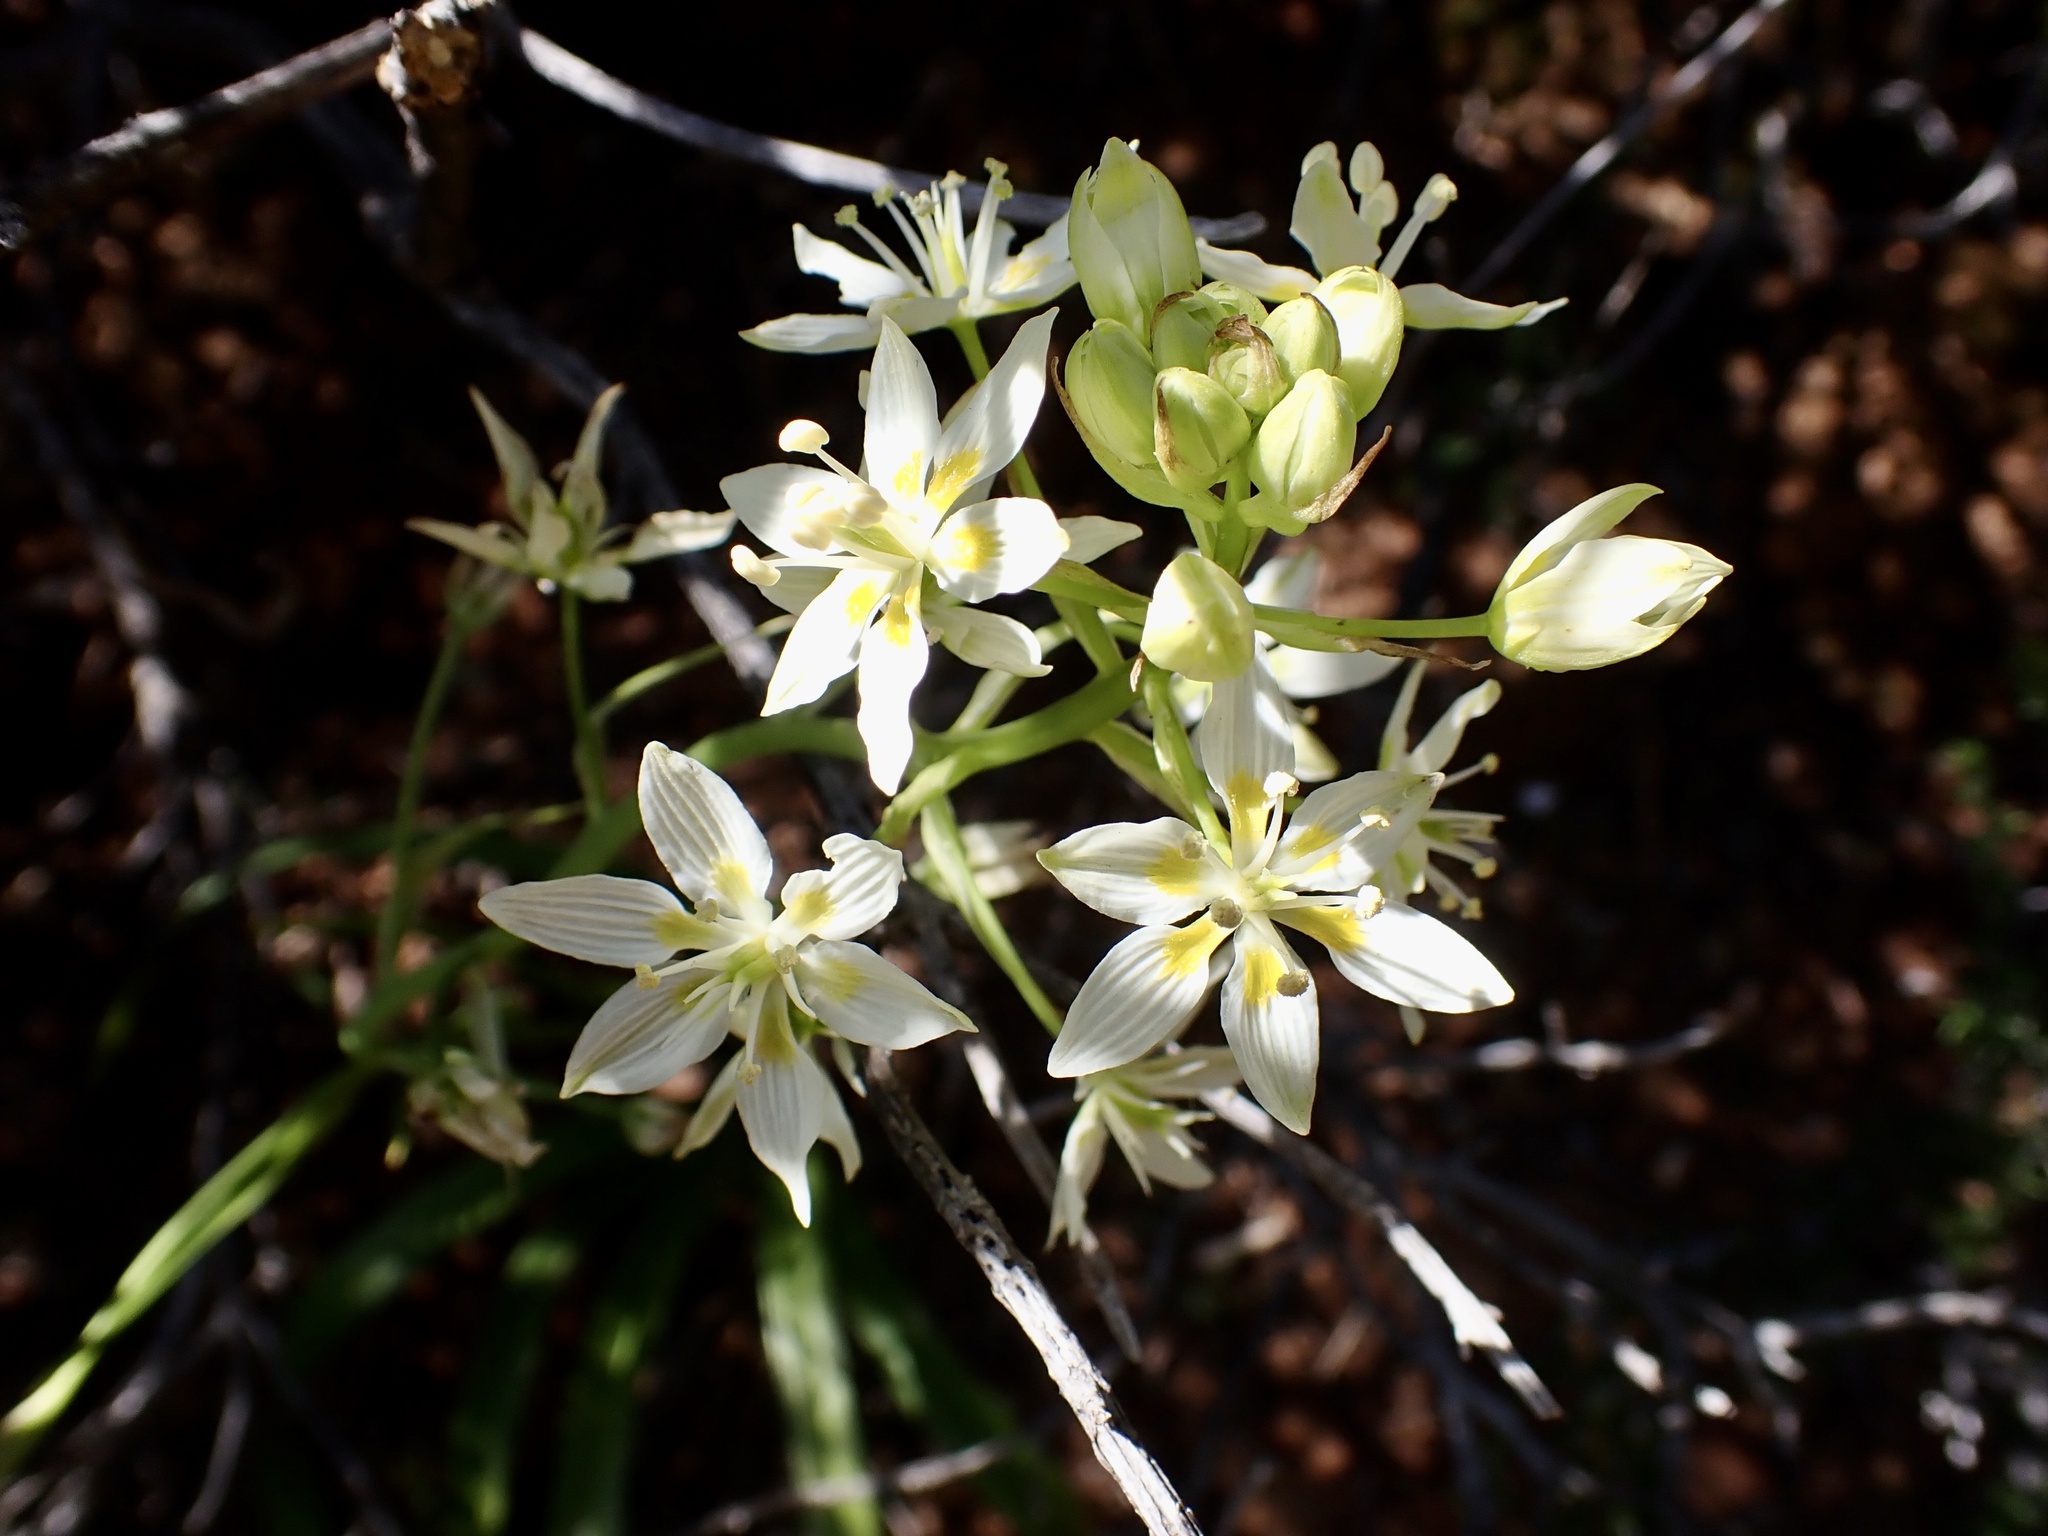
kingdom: Plantae
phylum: Tracheophyta
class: Liliopsida
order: Liliales
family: Melanthiaceae
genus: Toxicoscordion
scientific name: Toxicoscordion fremontii
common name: Fremont's death camas
